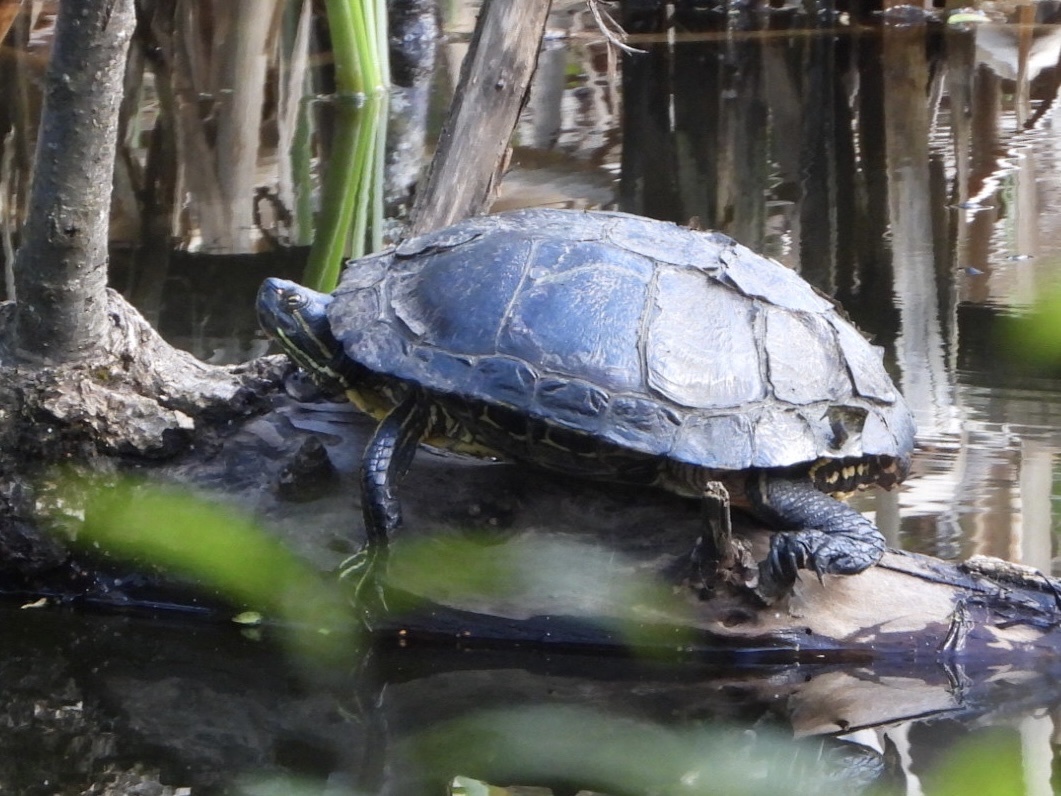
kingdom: Animalia
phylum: Chordata
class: Testudines
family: Emydidae
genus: Trachemys
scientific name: Trachemys scripta
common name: Slider
